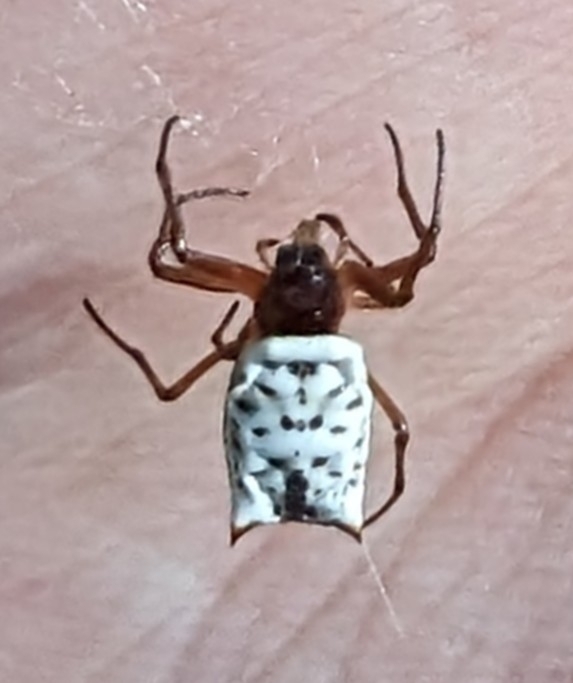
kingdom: Animalia
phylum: Arthropoda
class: Arachnida
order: Araneae
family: Araneidae
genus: Micrathena
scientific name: Micrathena mitrata
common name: Orb weavers
